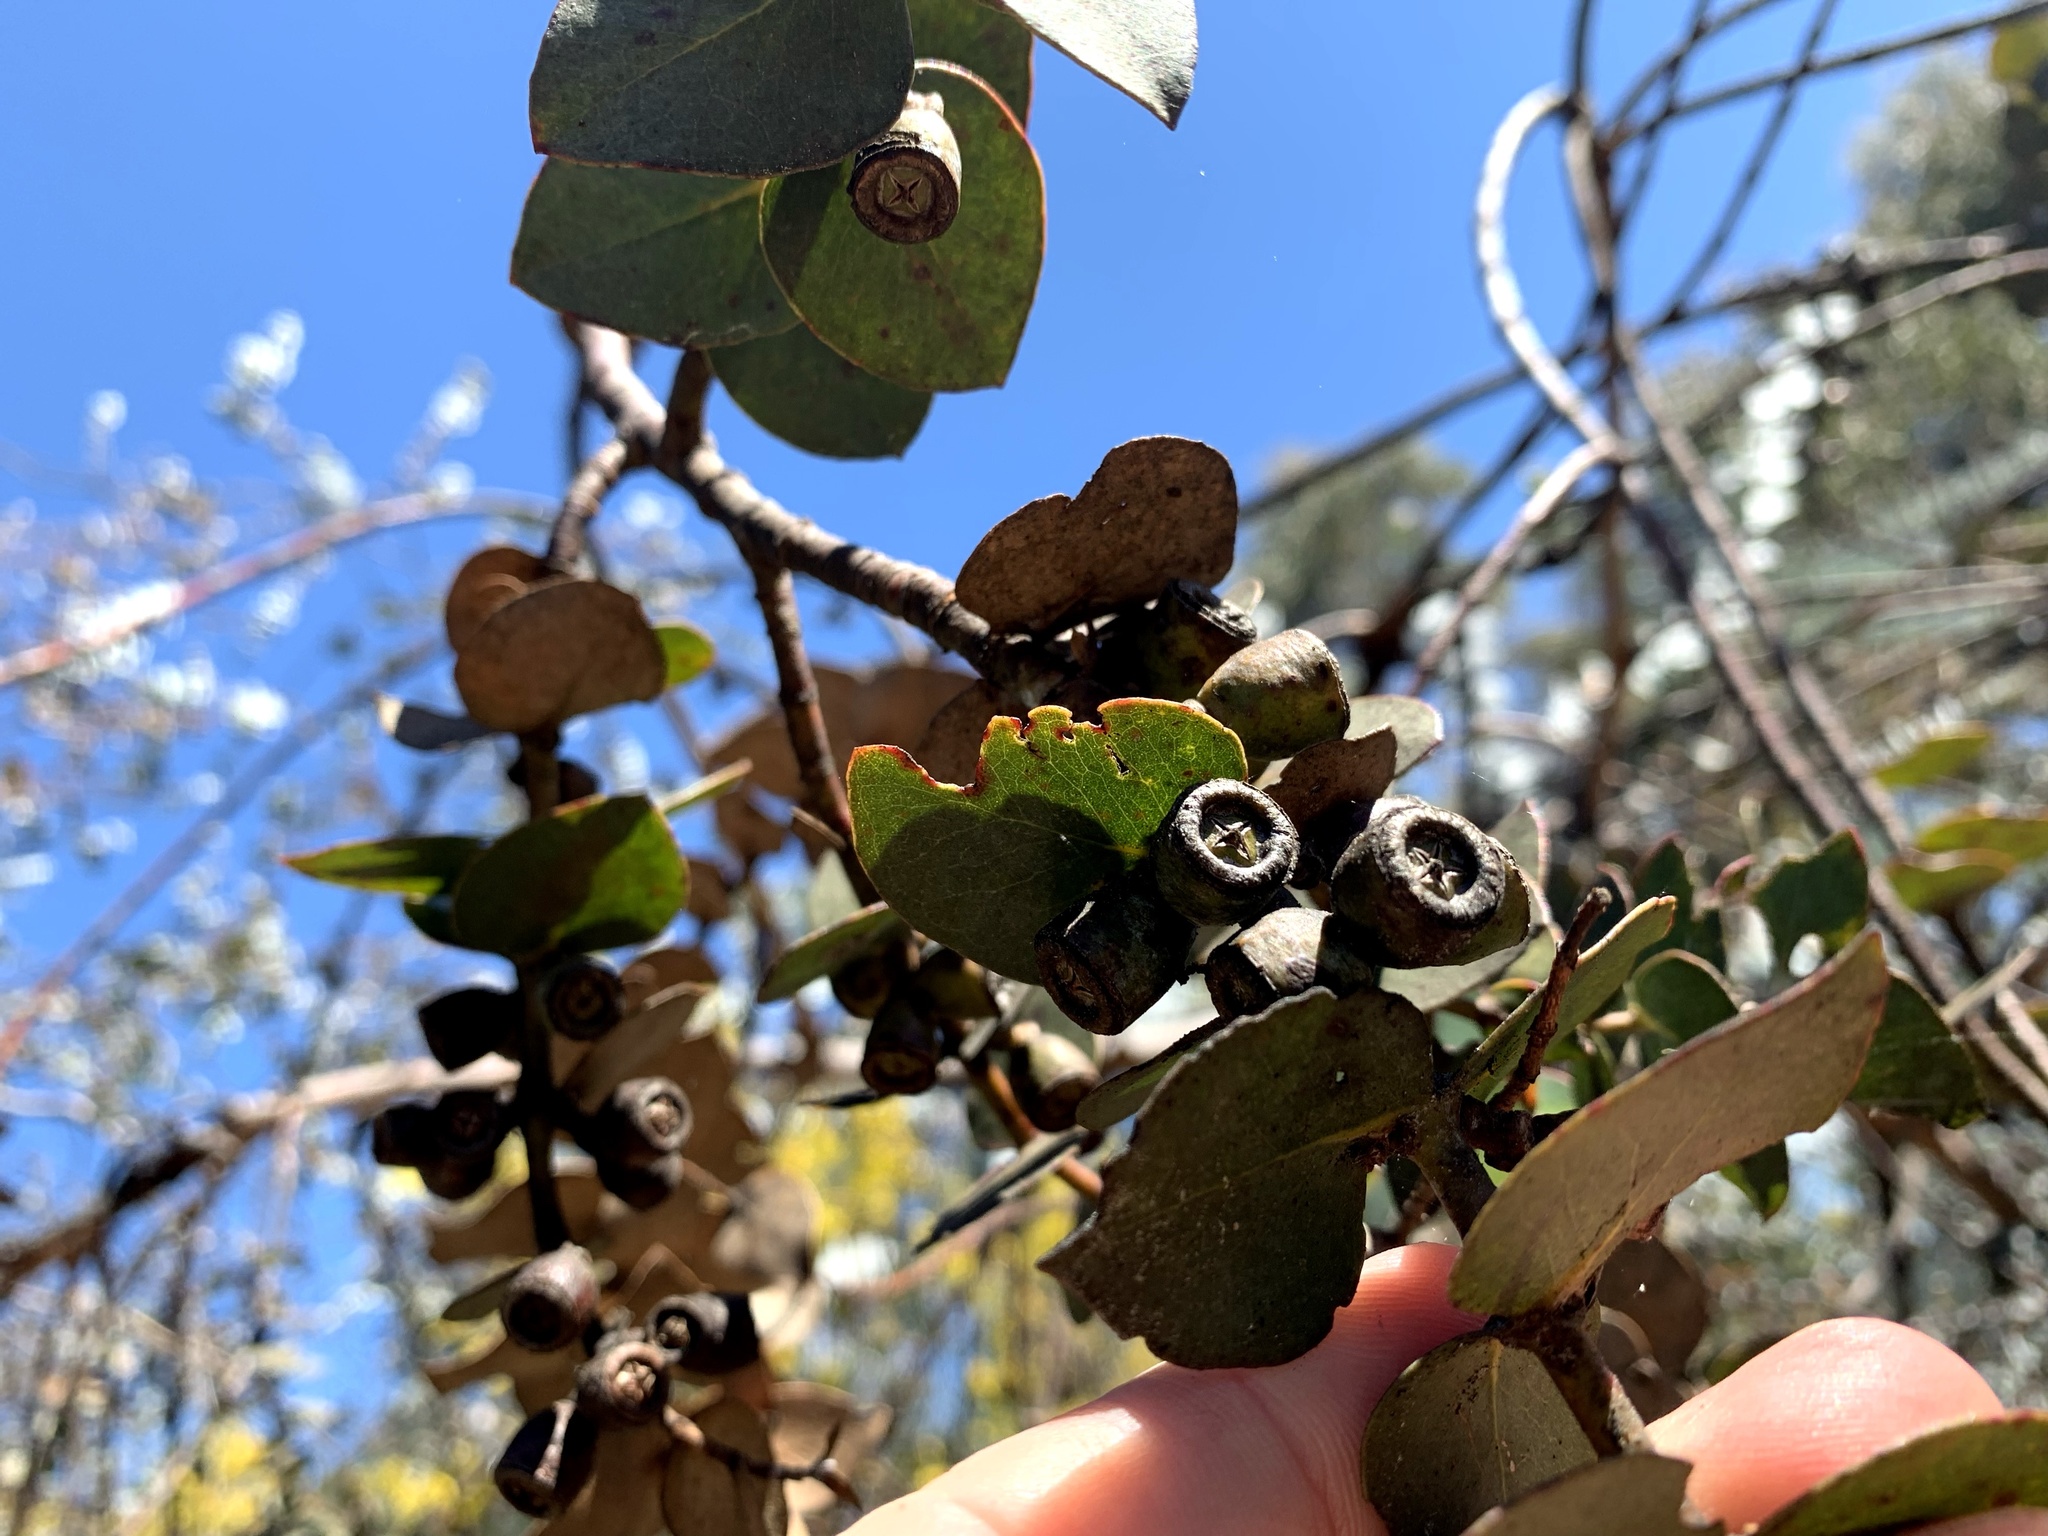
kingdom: Plantae
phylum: Tracheophyta
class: Magnoliopsida
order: Myrtales
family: Myrtaceae
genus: Eucalyptus
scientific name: Eucalyptus pulverulenta
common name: Silverleaf mountain gum
